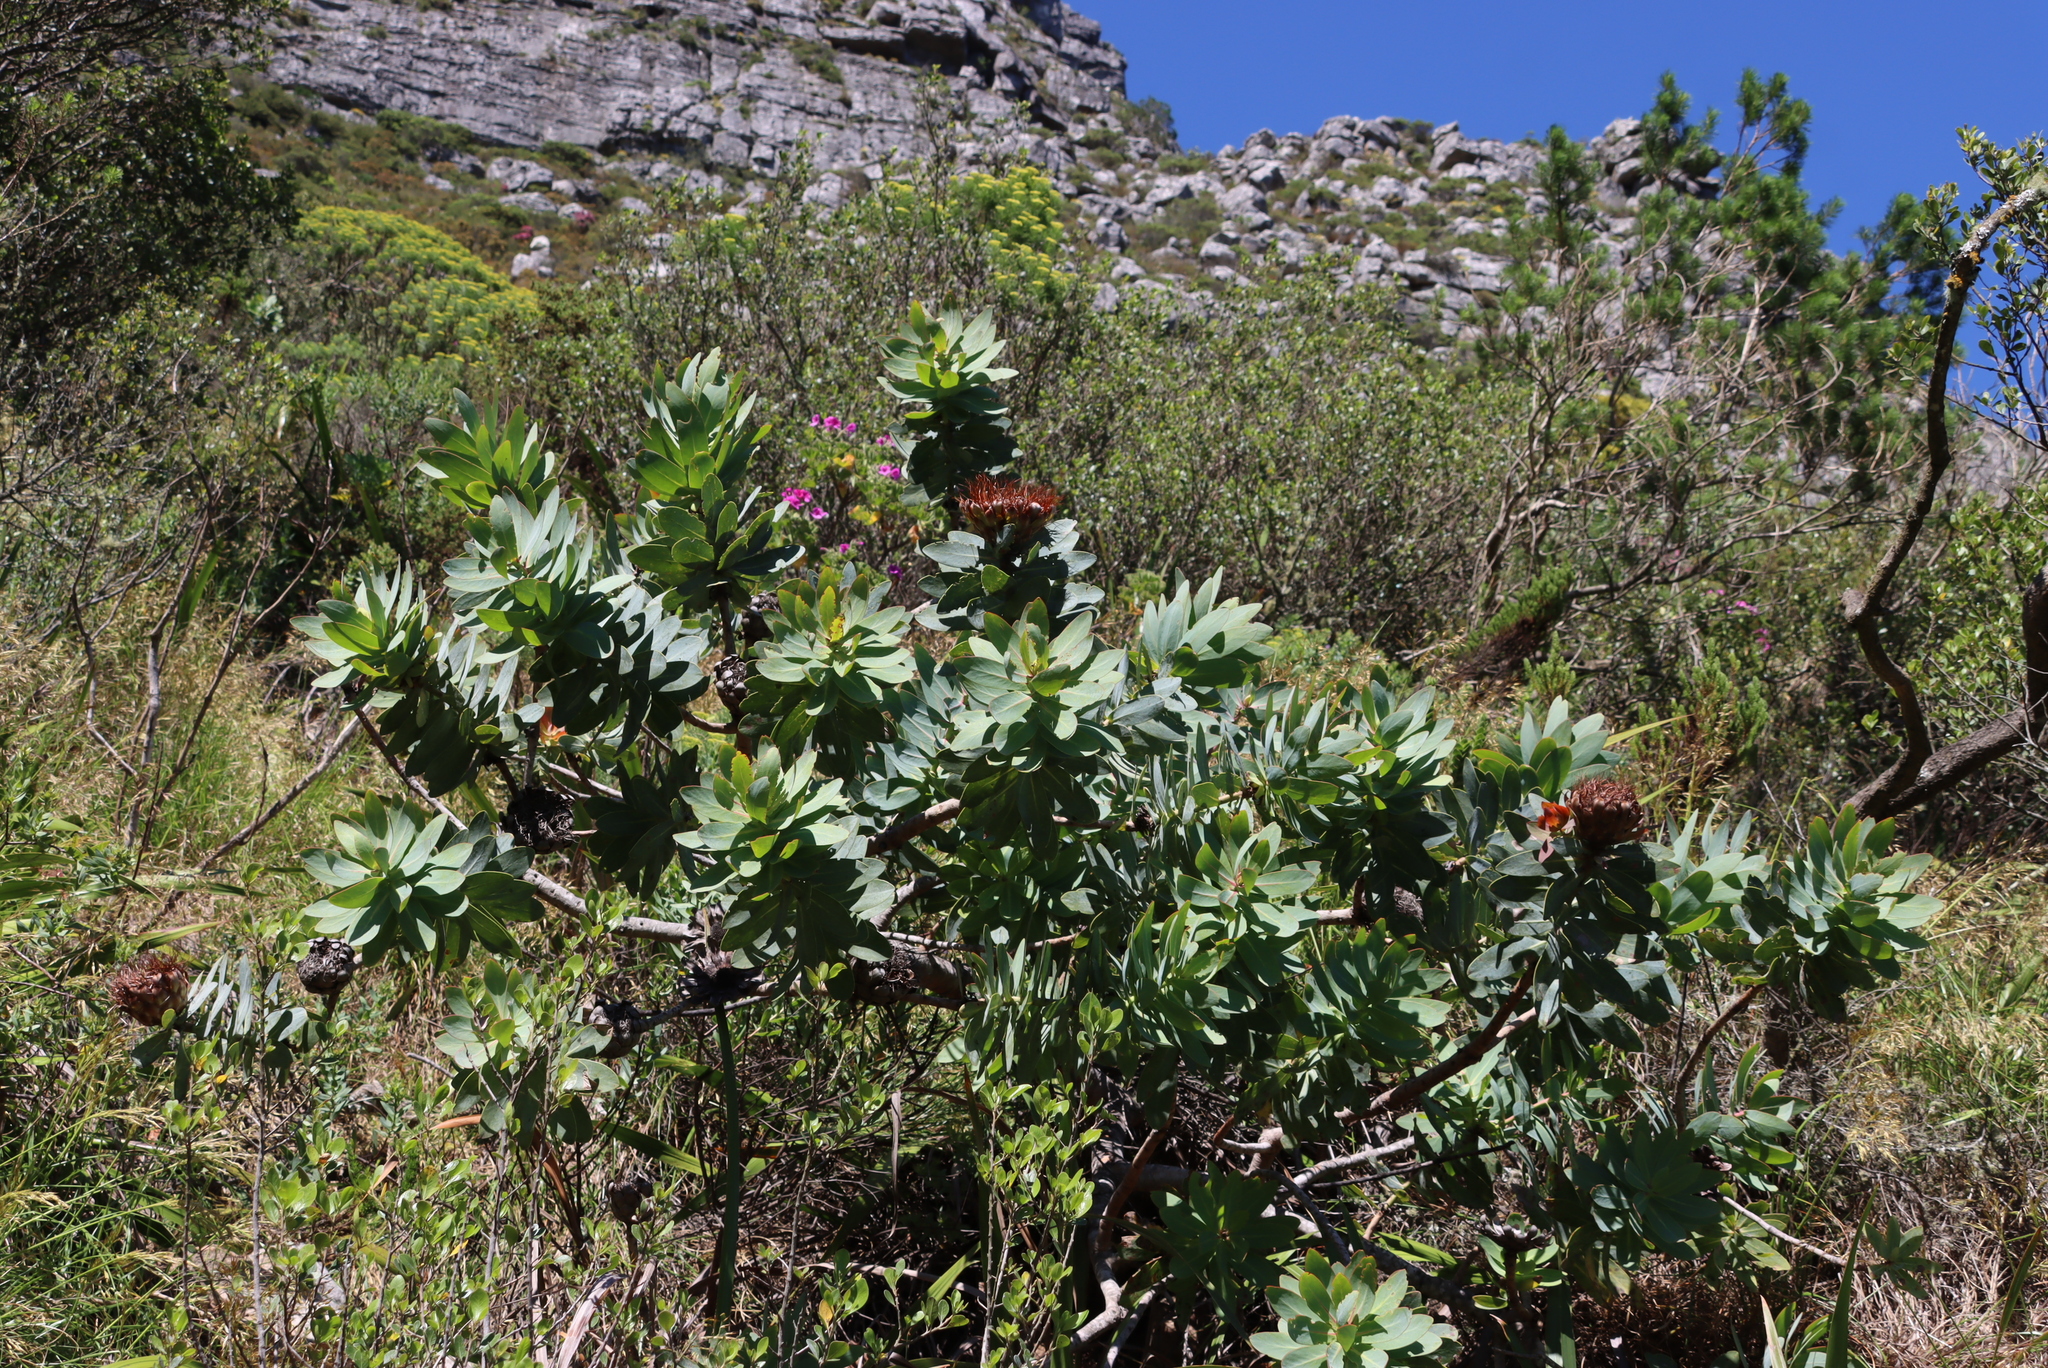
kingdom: Plantae
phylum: Tracheophyta
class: Magnoliopsida
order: Proteales
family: Proteaceae
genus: Protea
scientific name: Protea nitida
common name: Tree protea
